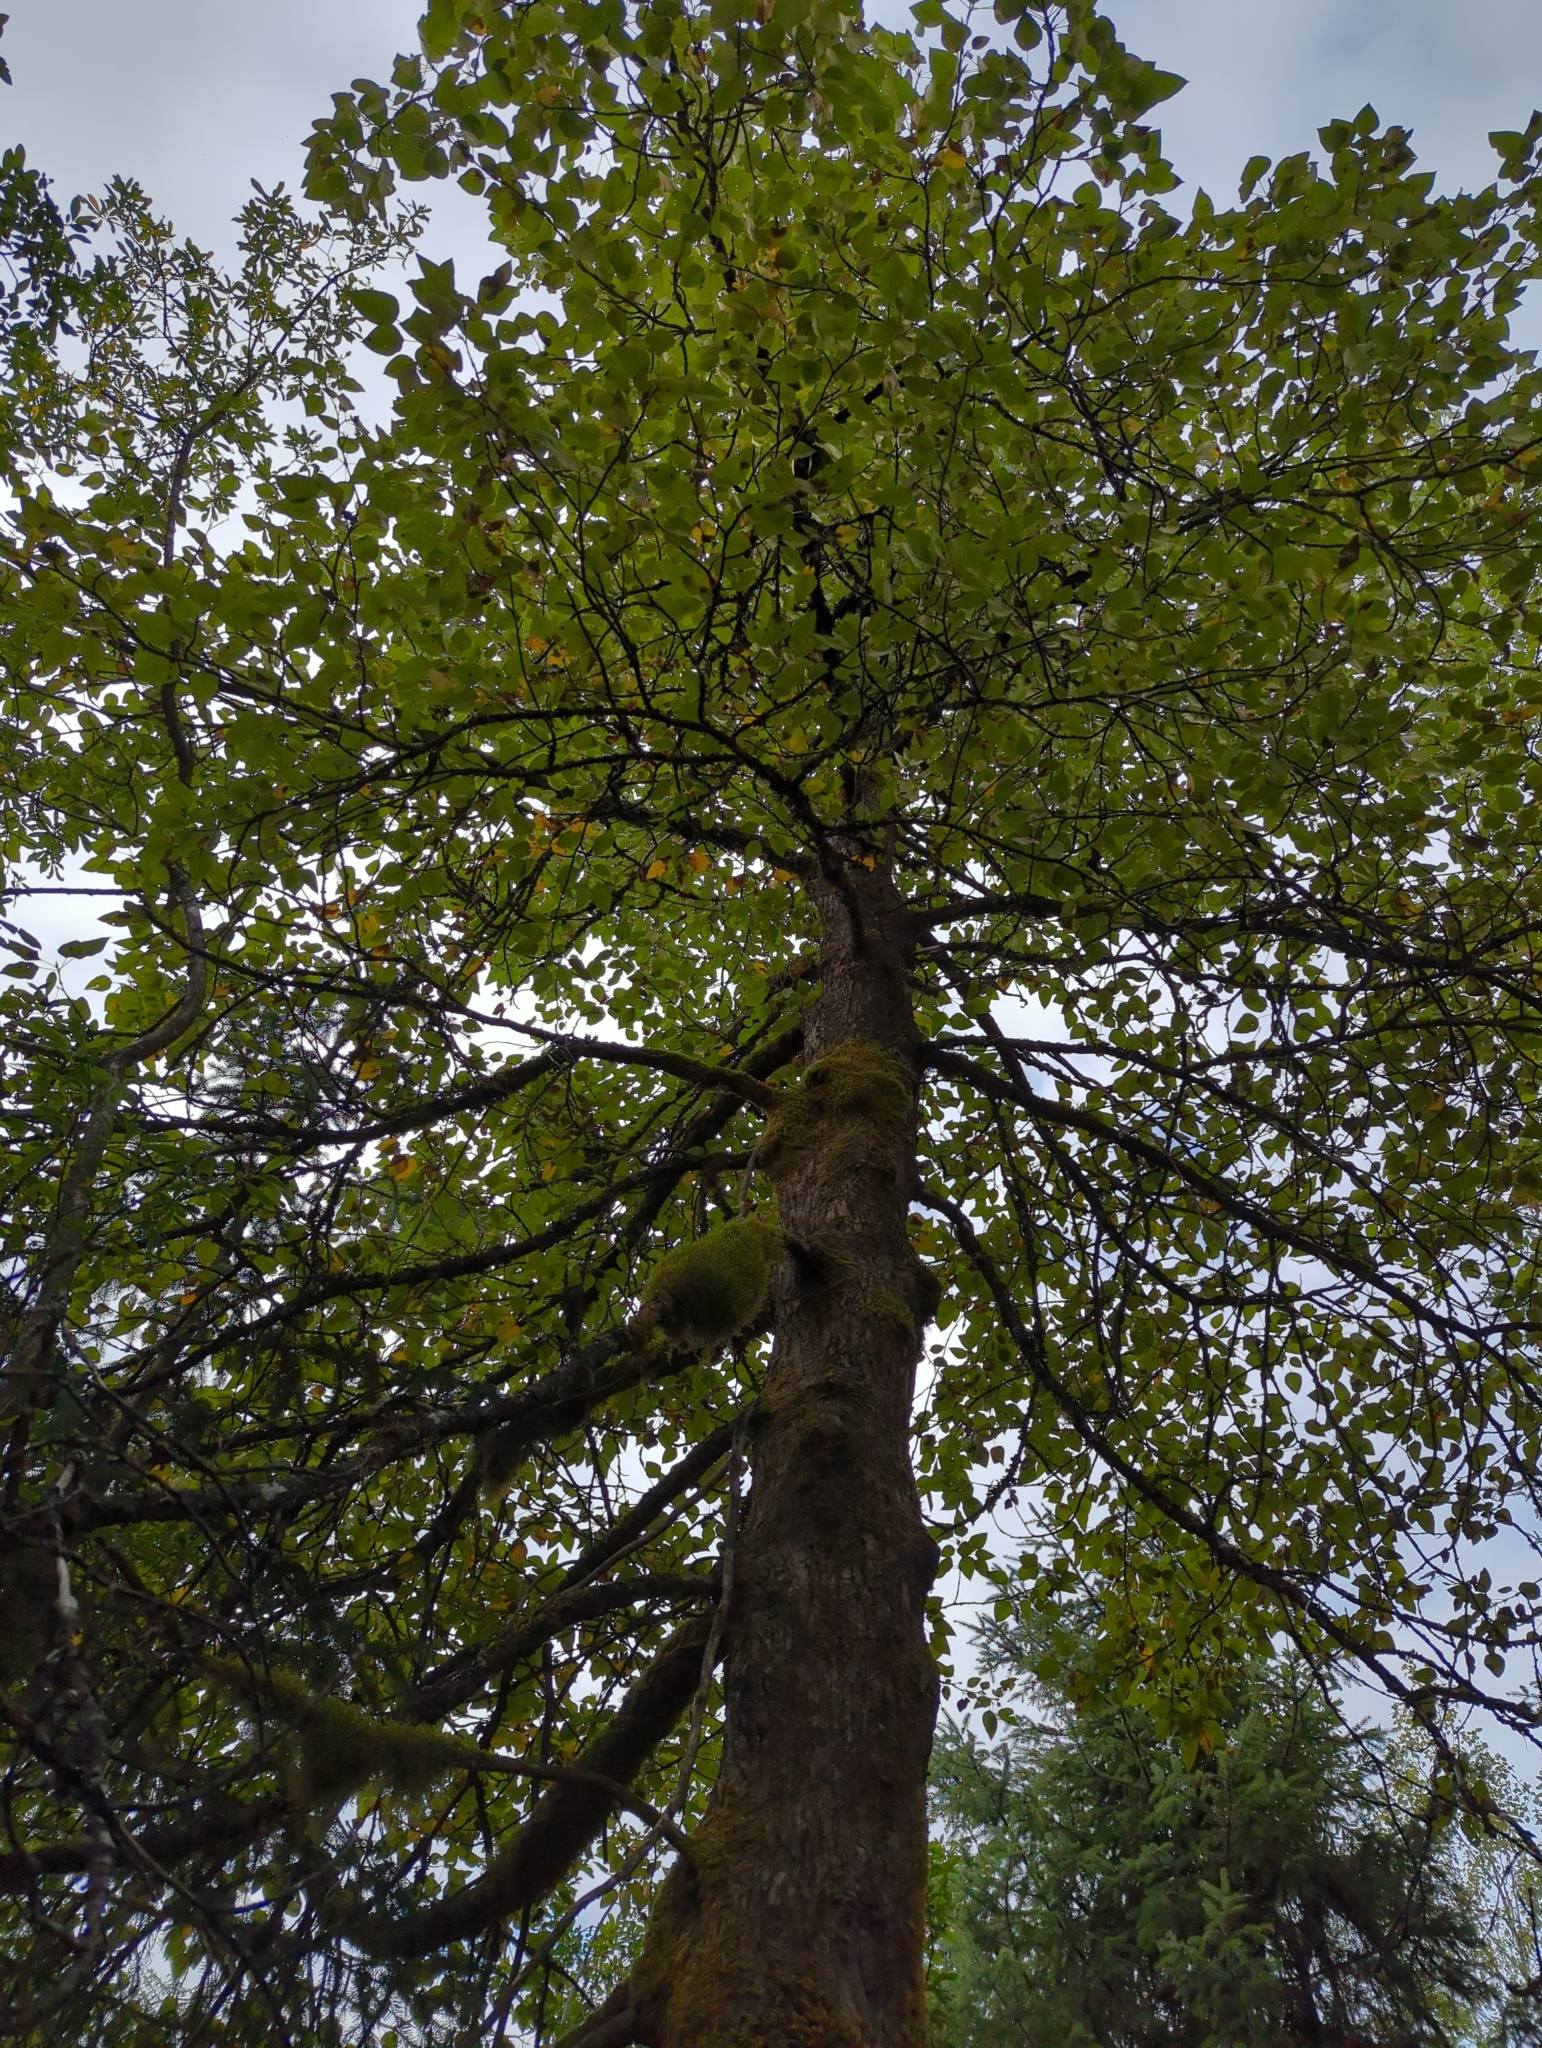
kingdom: Plantae
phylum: Tracheophyta
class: Magnoliopsida
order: Malpighiales
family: Salicaceae
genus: Populus
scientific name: Populus trichocarpa
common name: Black cottonwood
